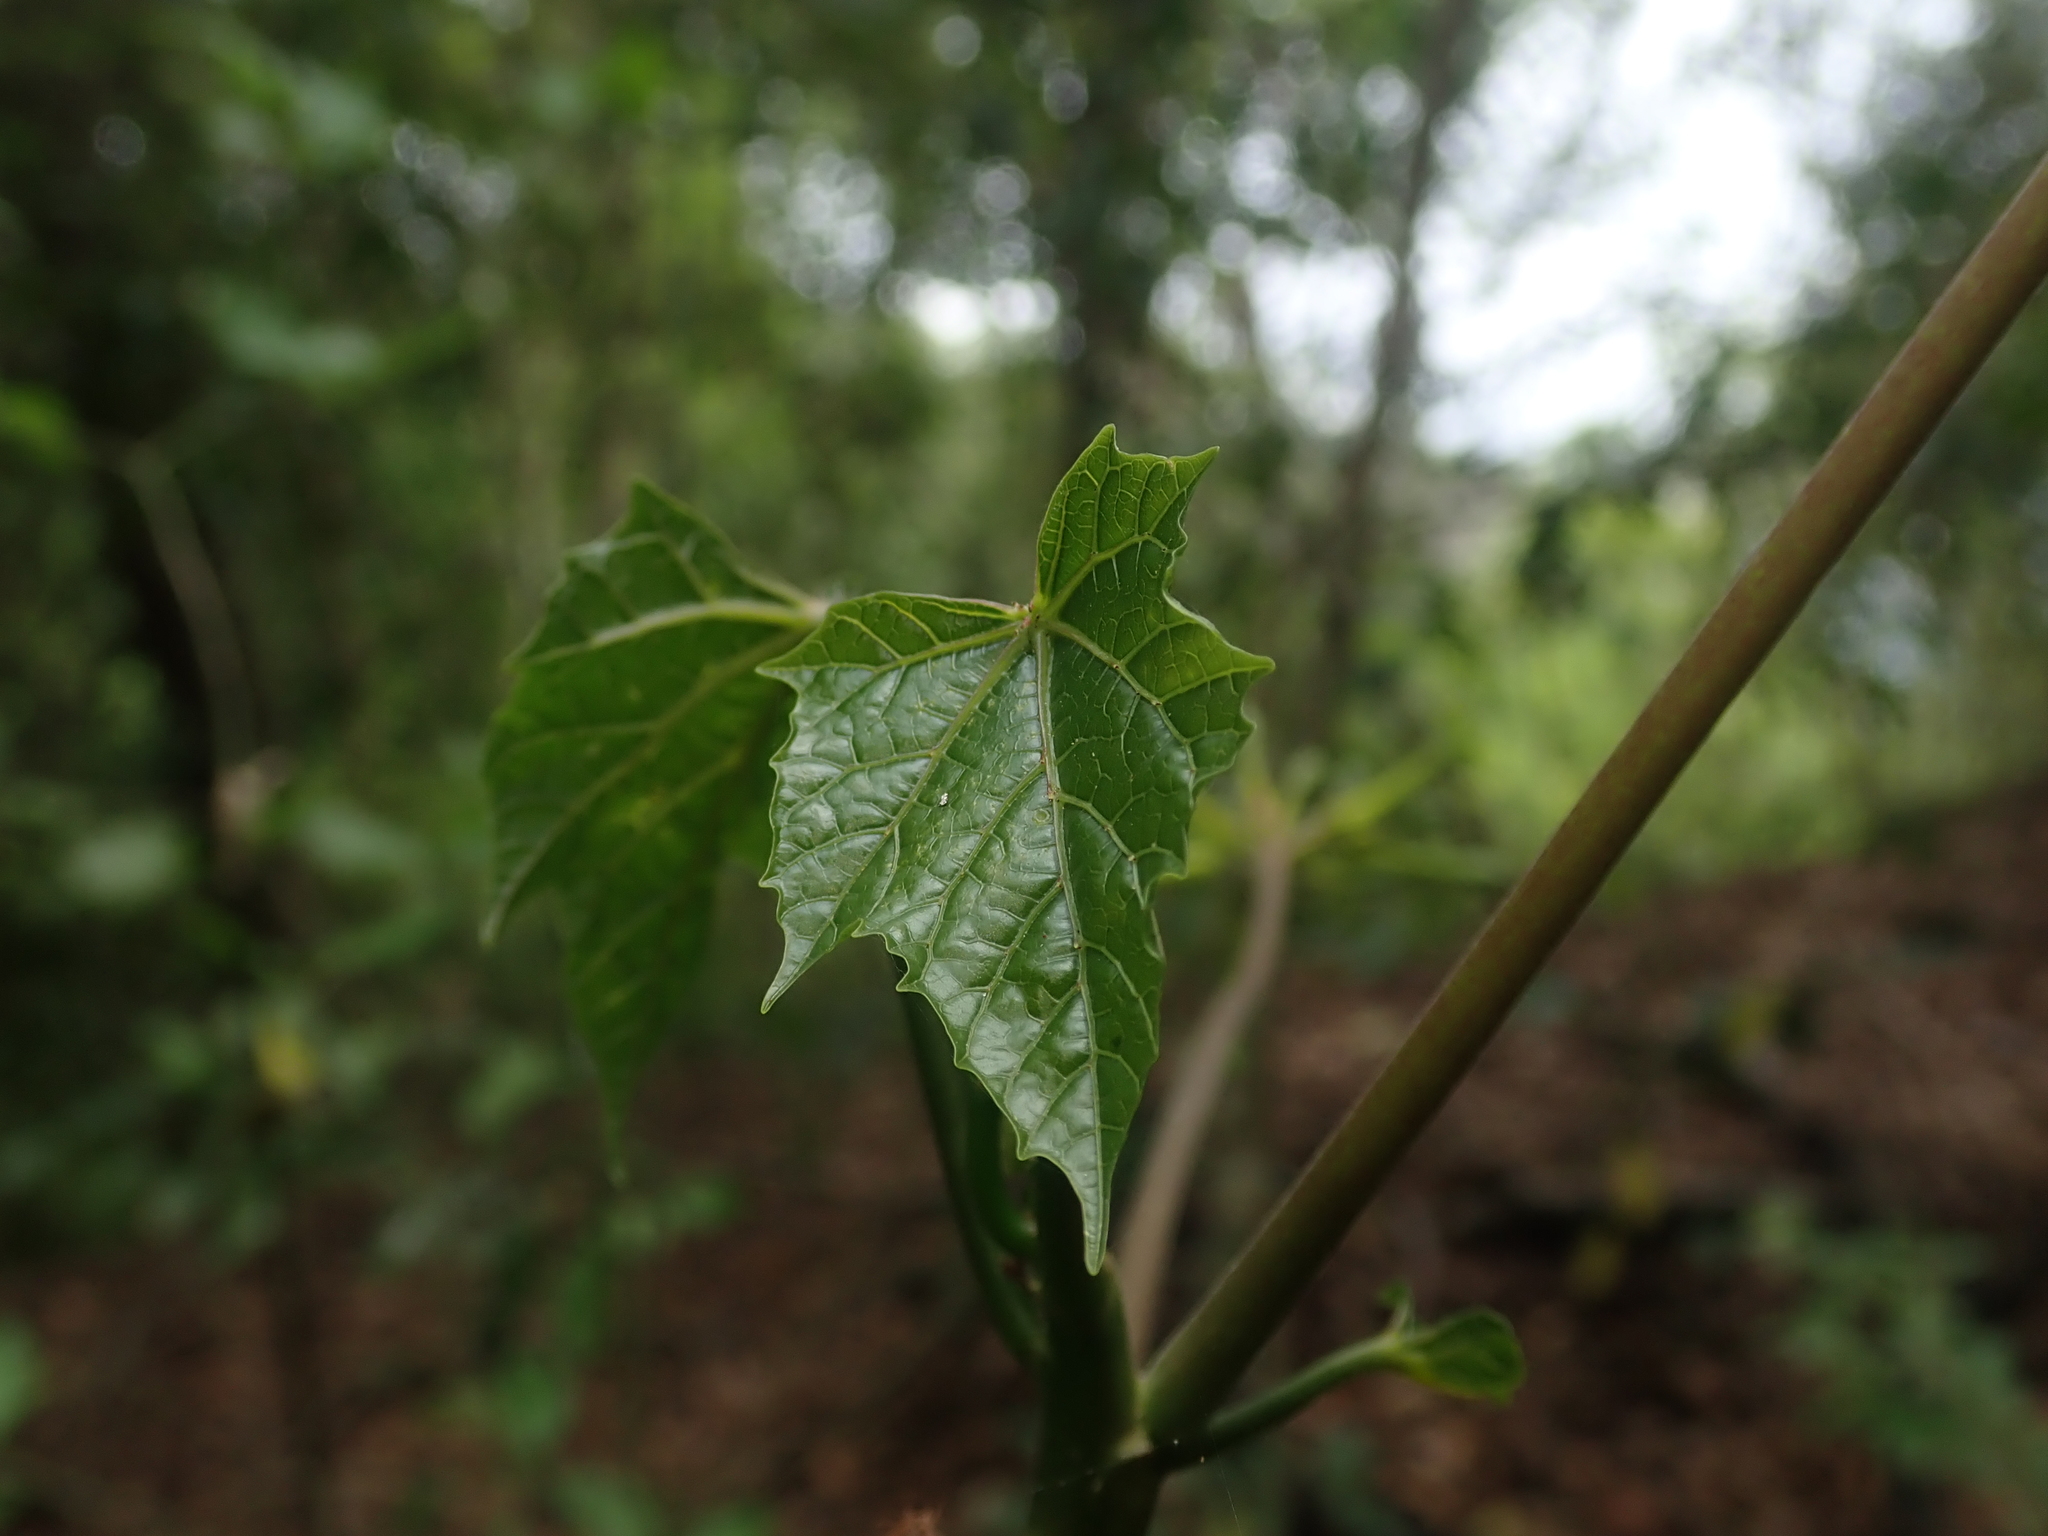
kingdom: Plantae
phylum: Tracheophyta
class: Magnoliopsida
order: Brassicales
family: Caricaceae
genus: Vasconcellea
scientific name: Vasconcellea quercifolia
